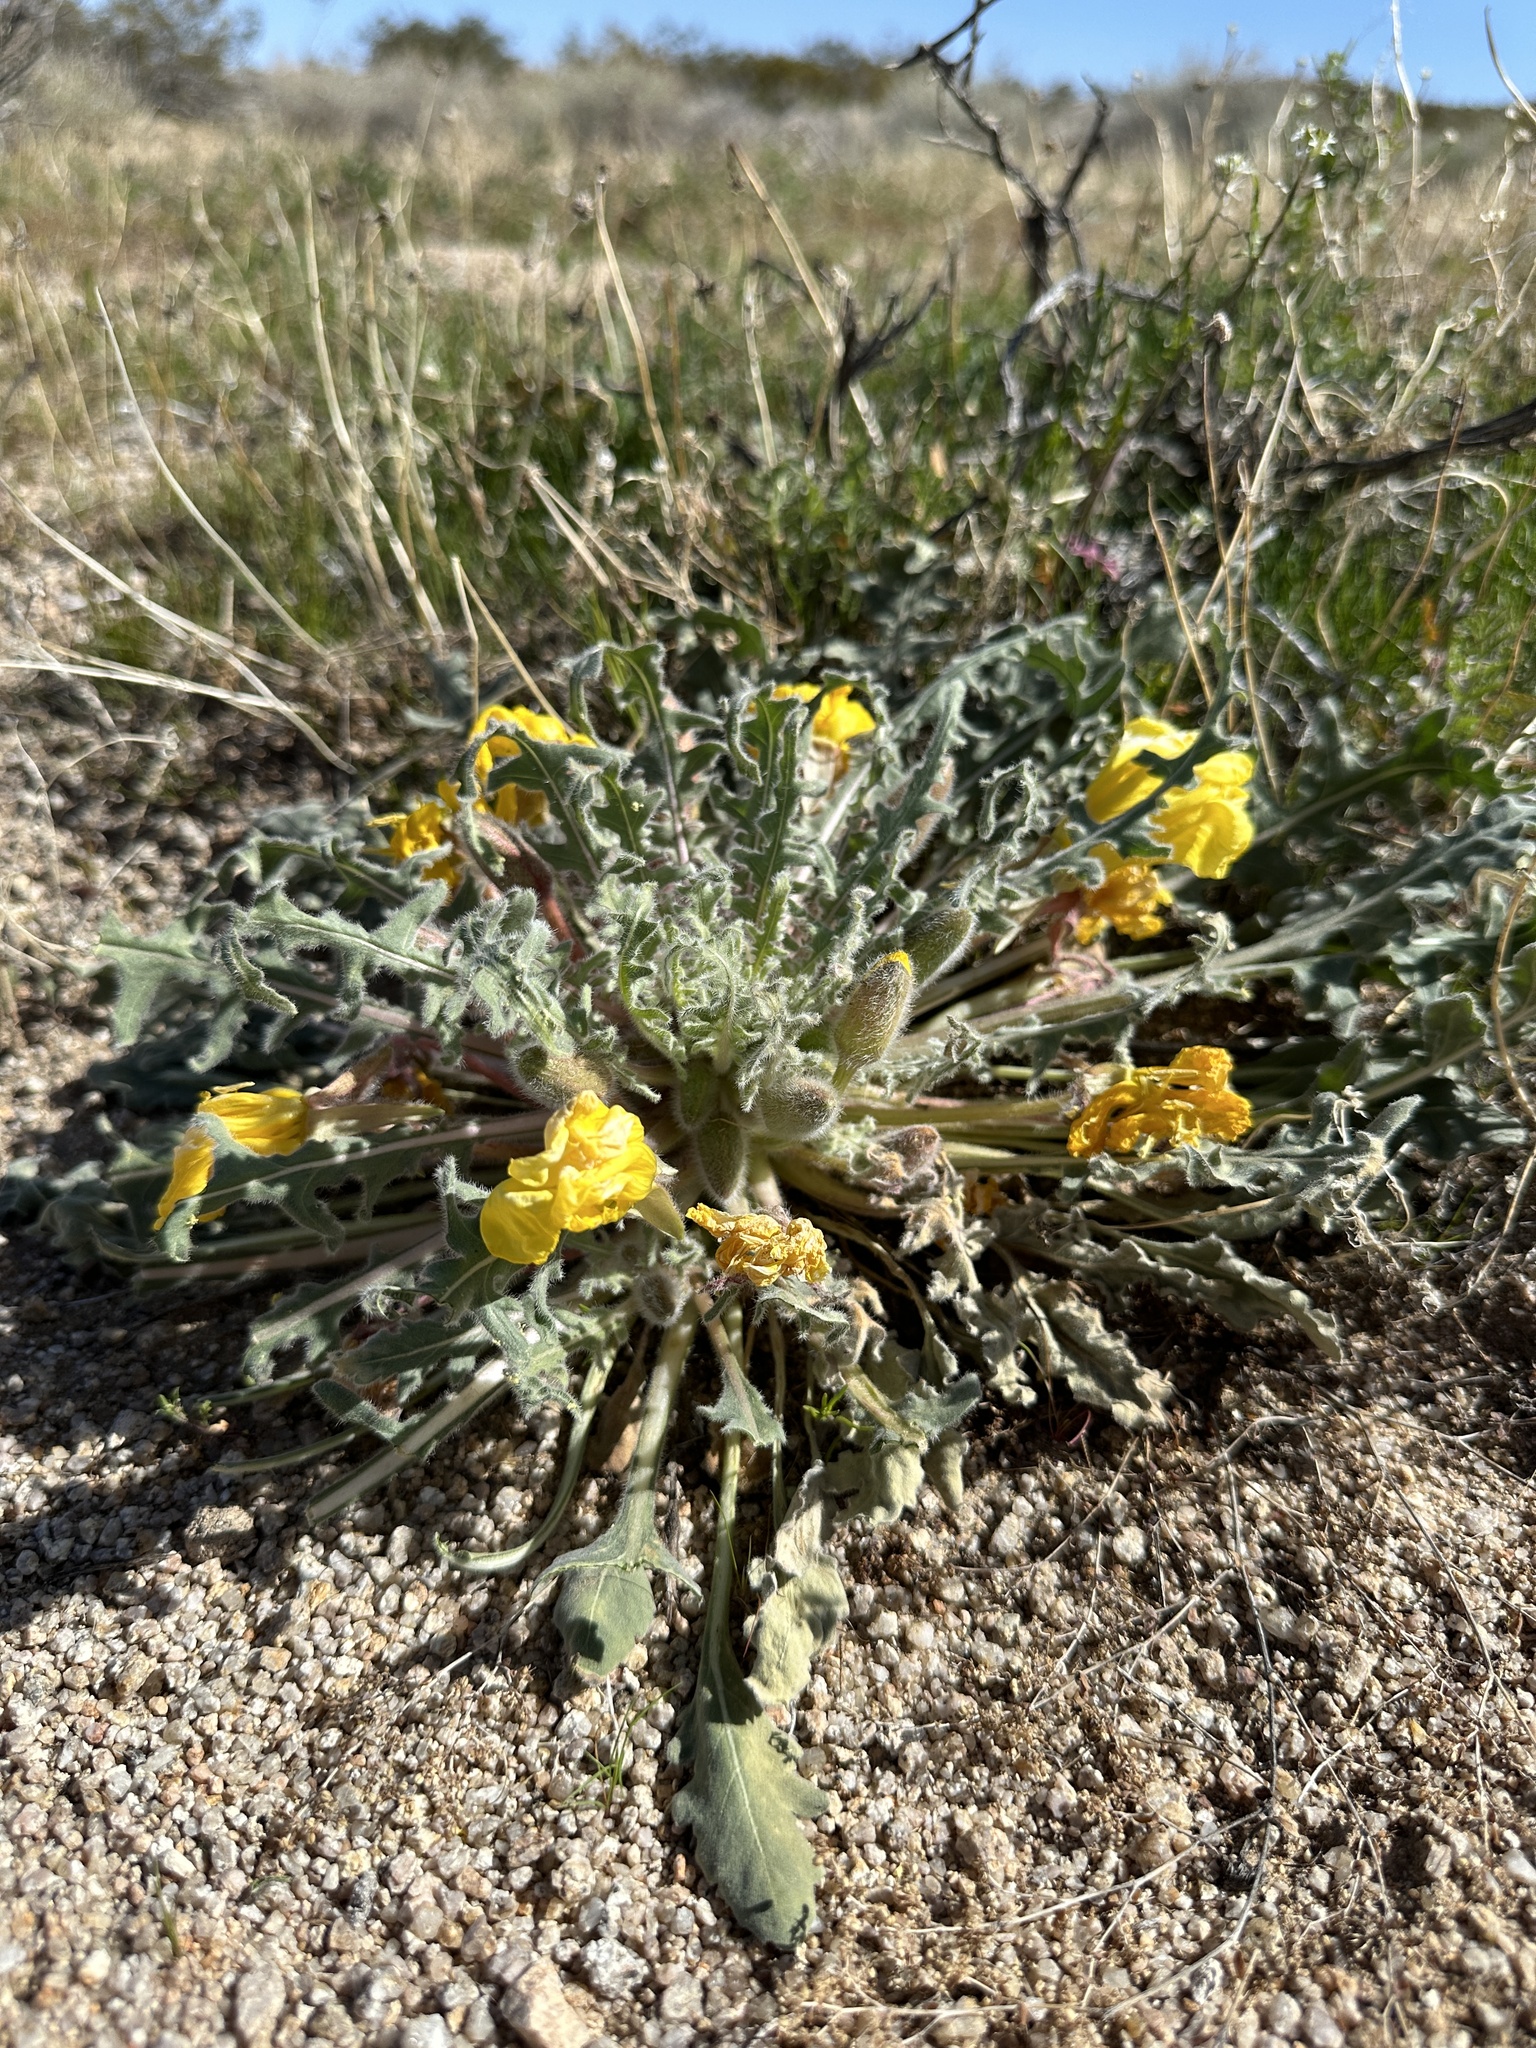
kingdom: Plantae
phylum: Tracheophyta
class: Magnoliopsida
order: Myrtales
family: Onagraceae
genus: Oenothera
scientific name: Oenothera primiveris
